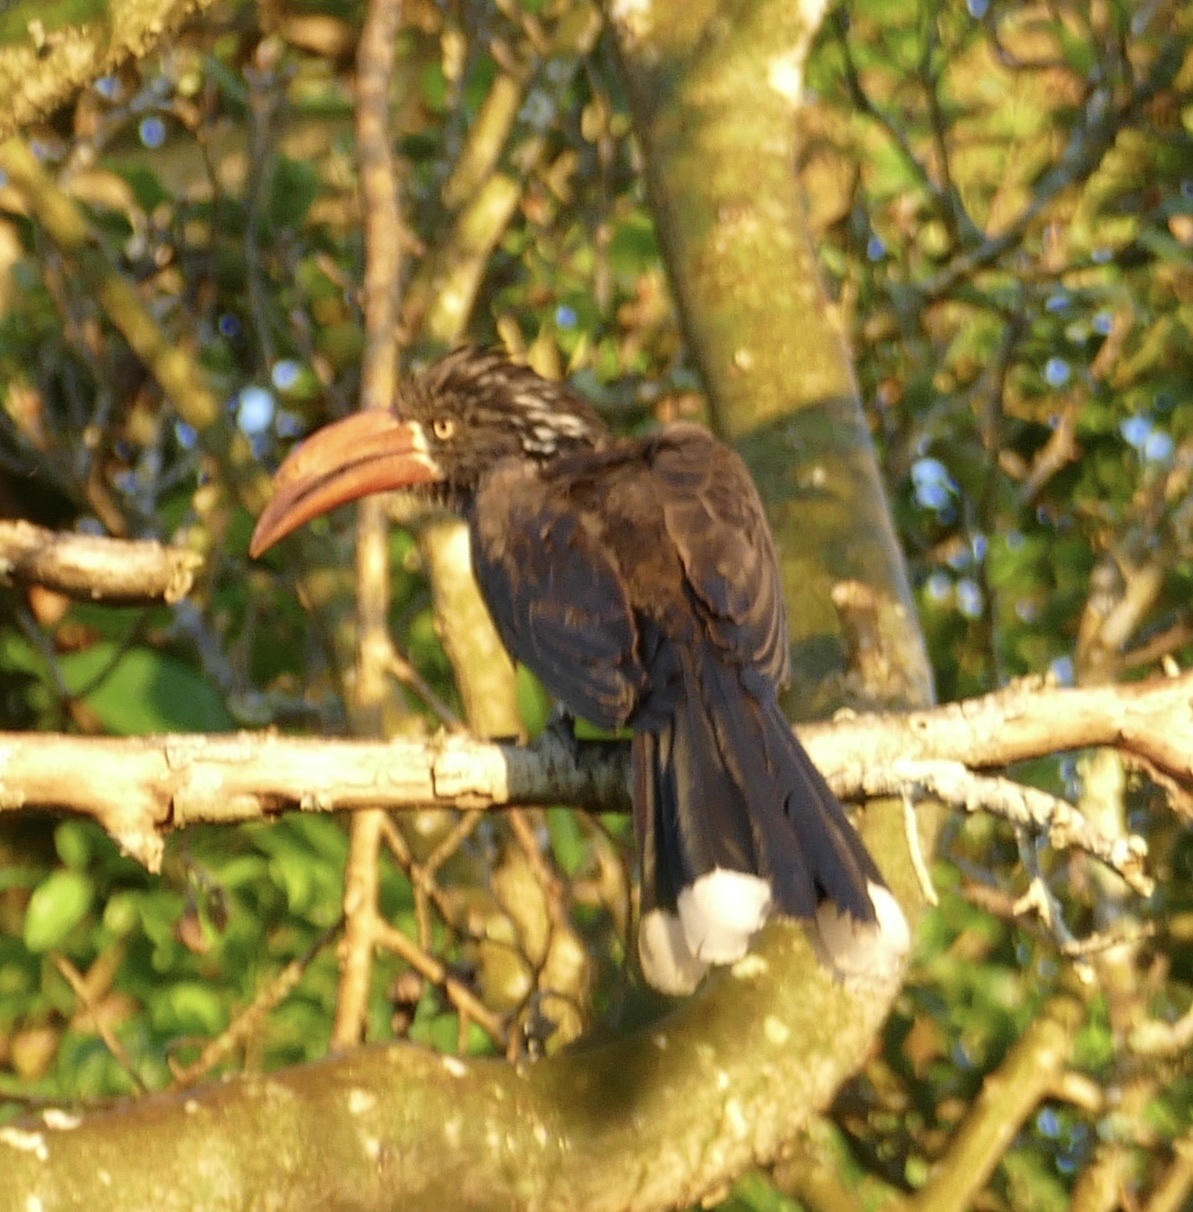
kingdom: Animalia
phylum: Chordata
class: Aves
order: Bucerotiformes
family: Bucerotidae
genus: Lophoceros
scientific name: Lophoceros alboterminatus
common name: Crowned hornbill
